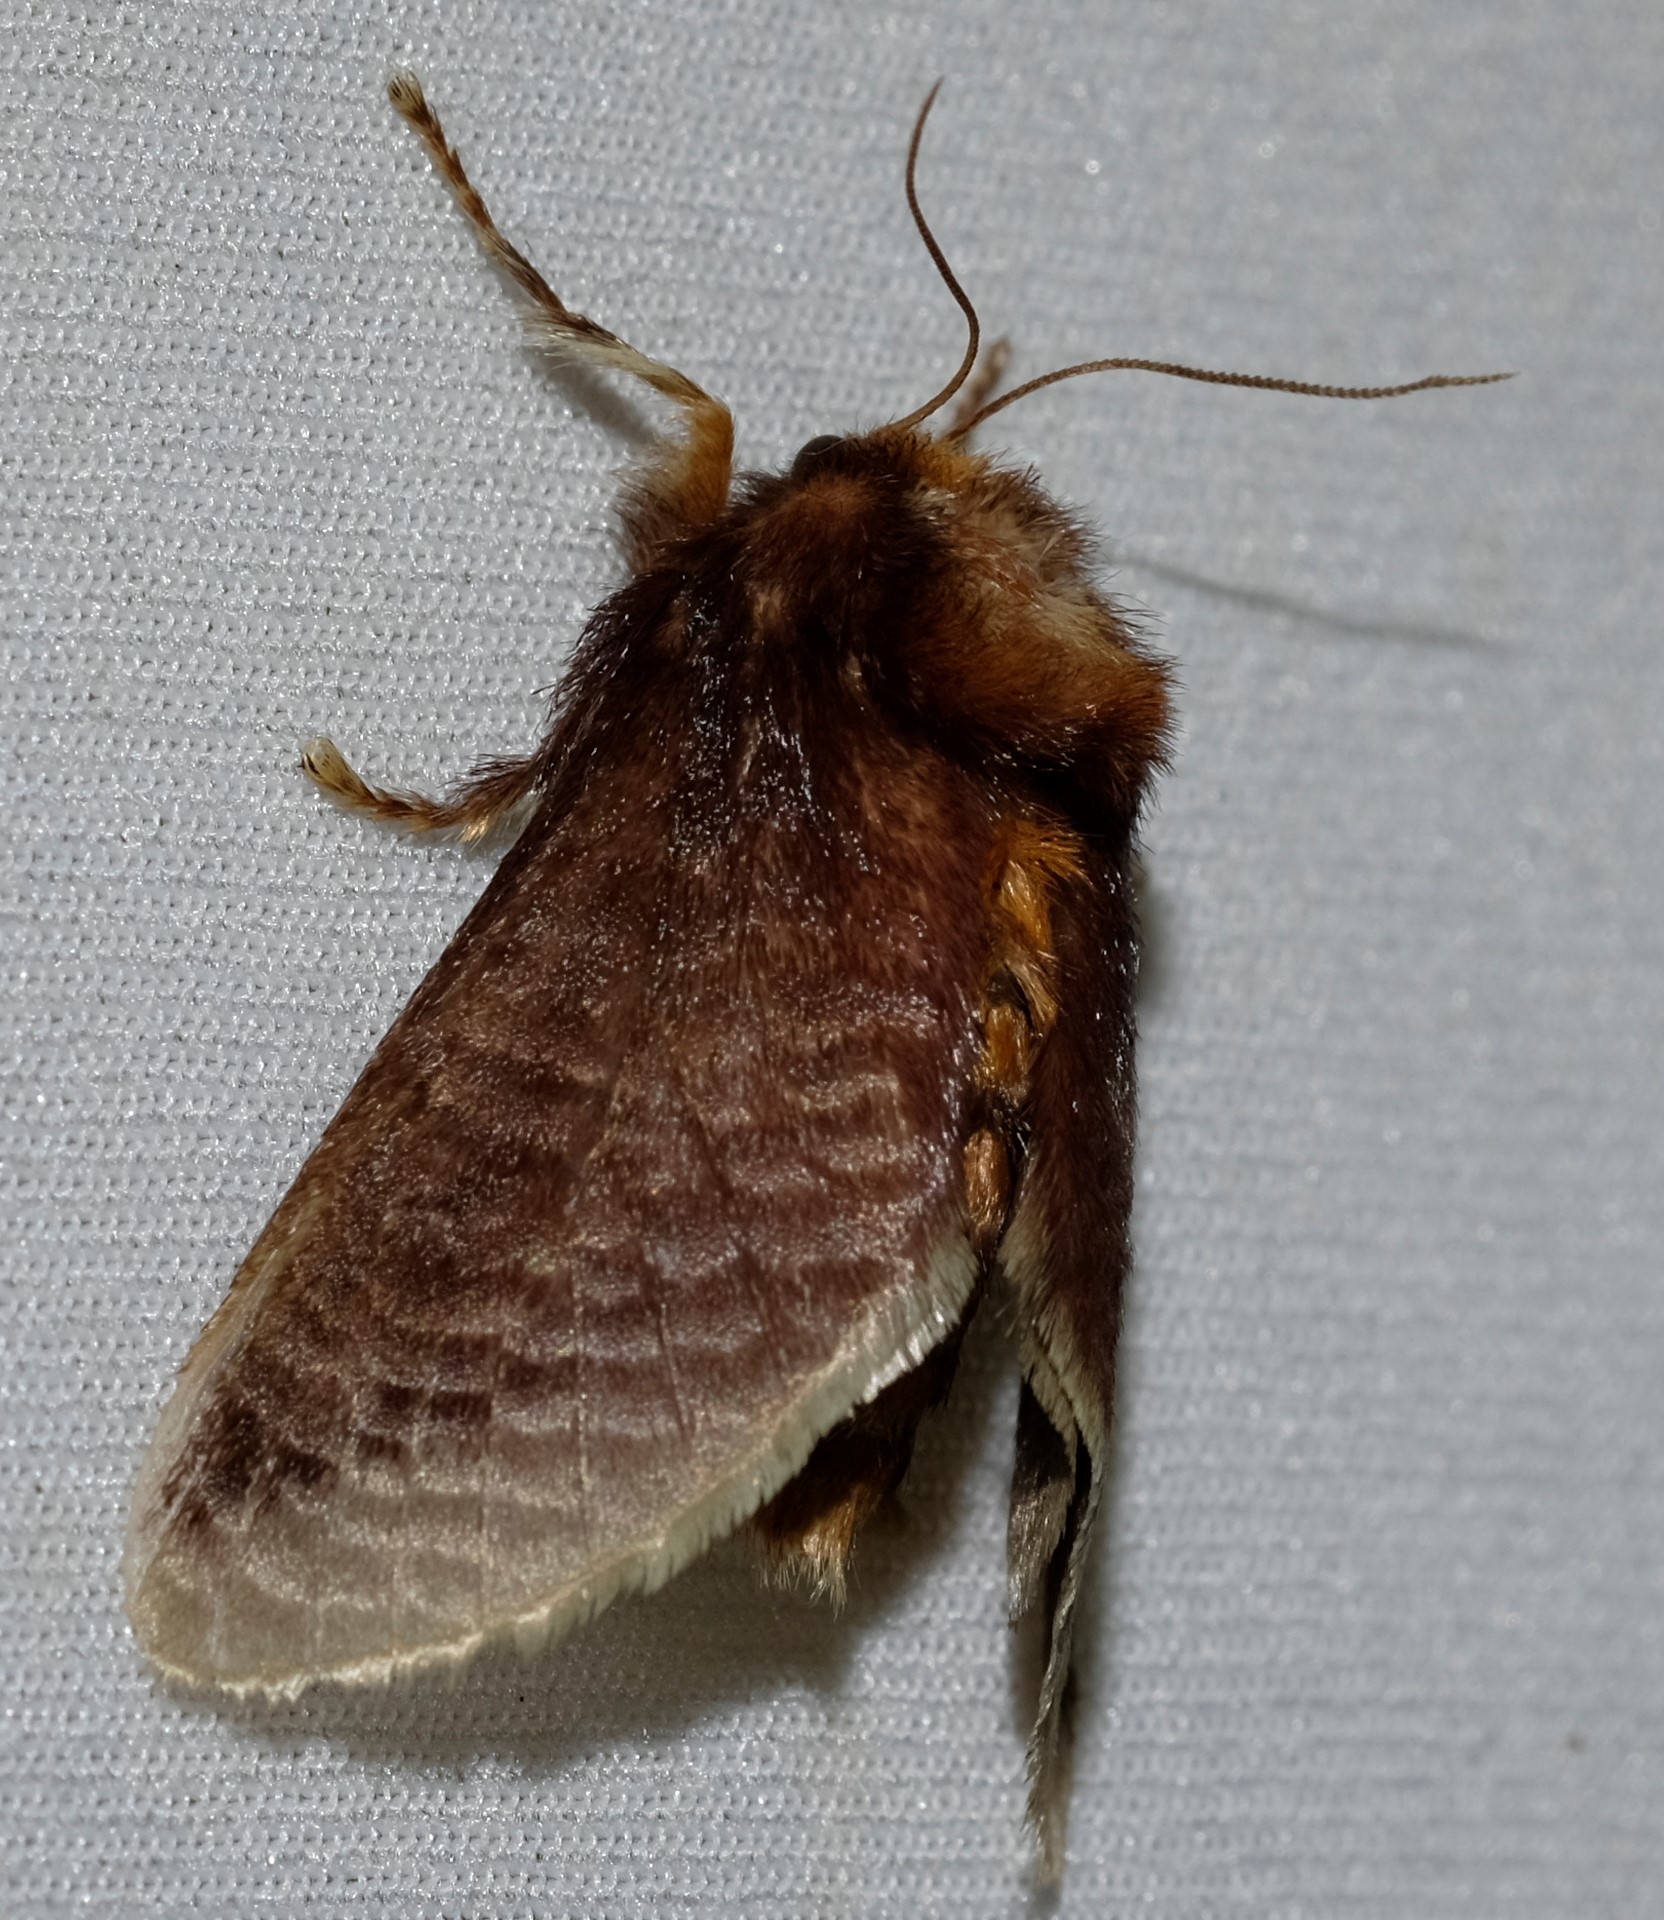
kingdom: Animalia
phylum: Arthropoda
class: Insecta
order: Lepidoptera
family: Limacodidae
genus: Doratifera
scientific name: Doratifera oxleyi
